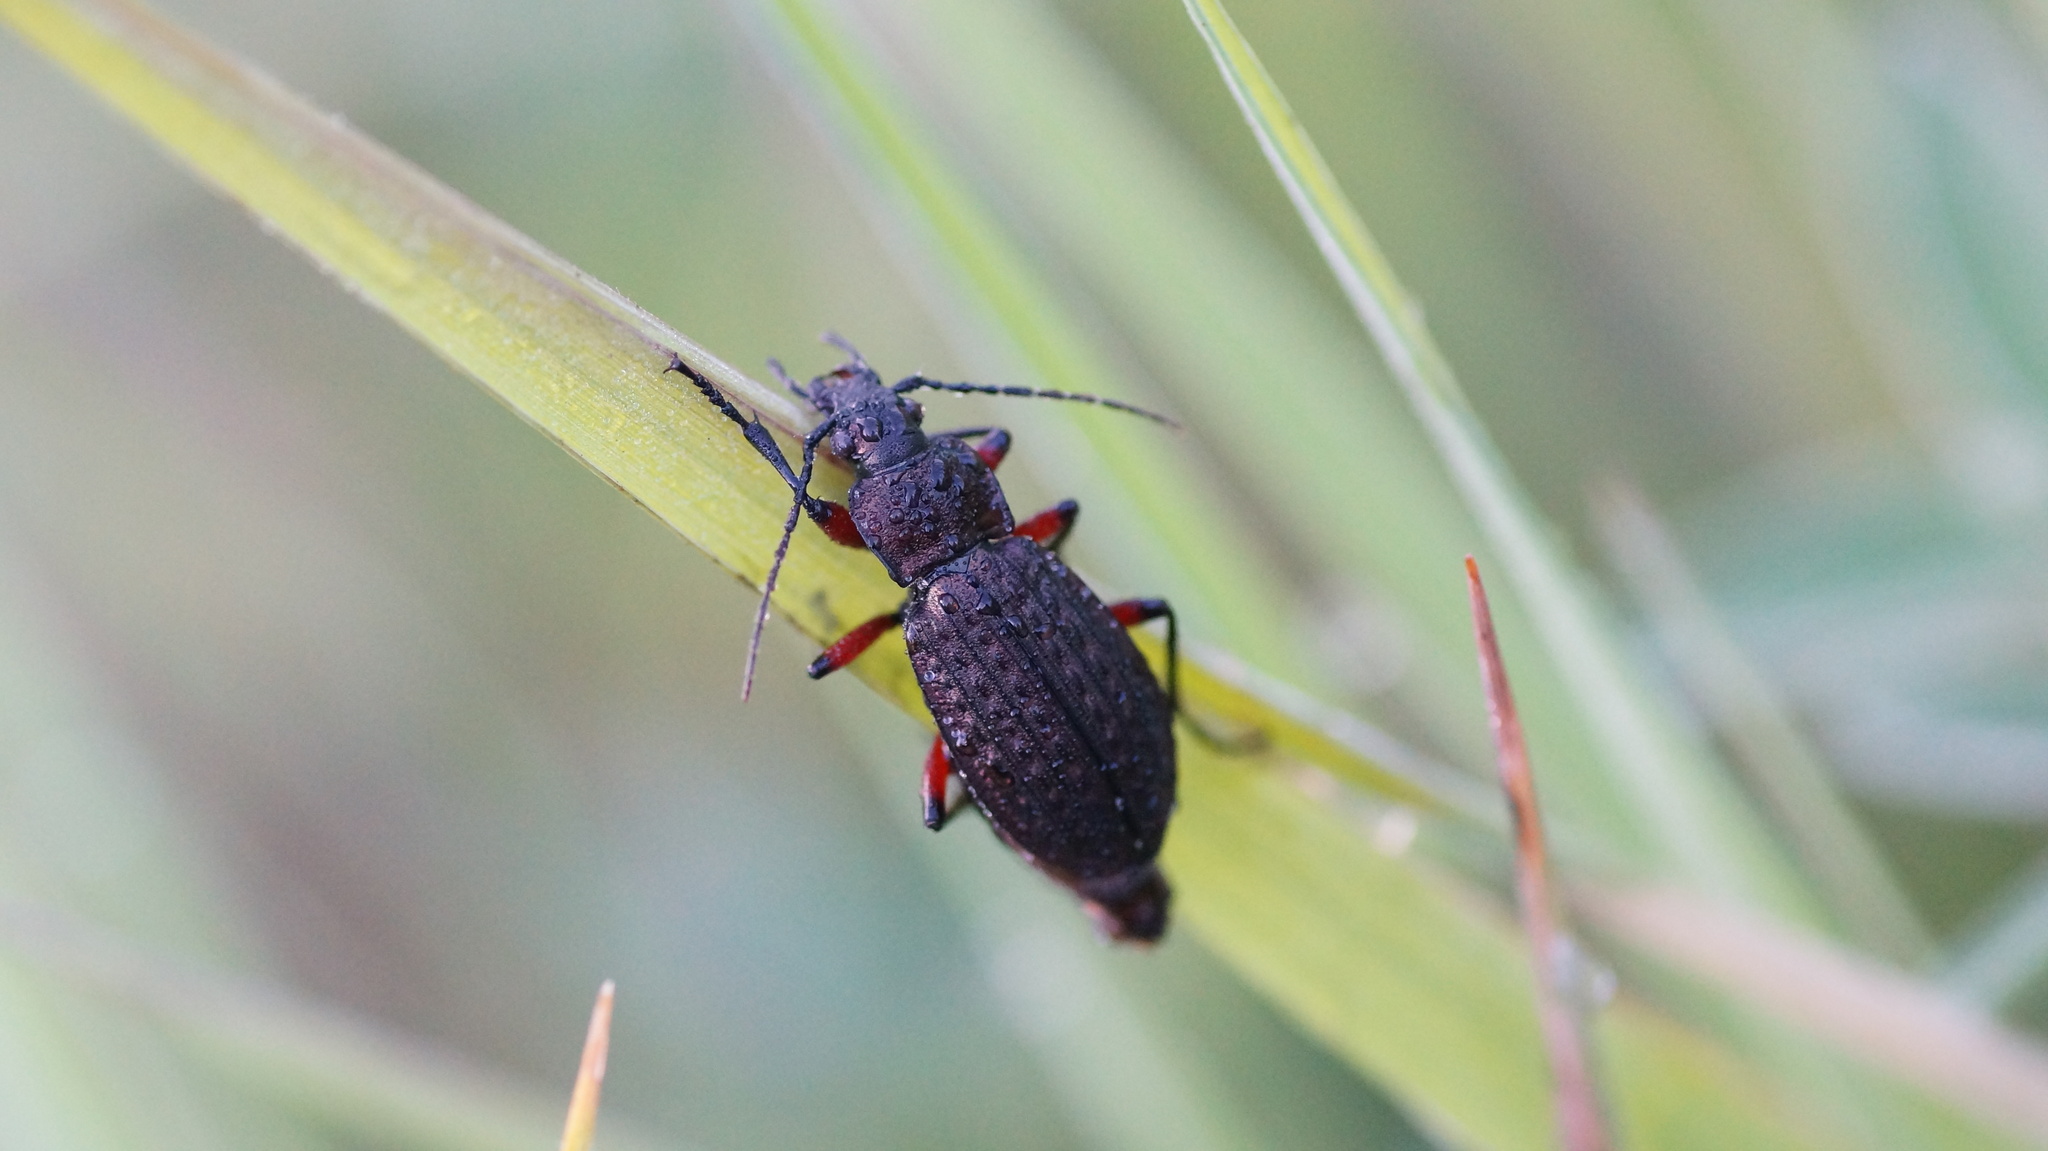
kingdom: Animalia
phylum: Arthropoda
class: Insecta
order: Coleoptera
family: Carabidae
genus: Carabus
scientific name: Carabus granulatus
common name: Granulate ground beetle
